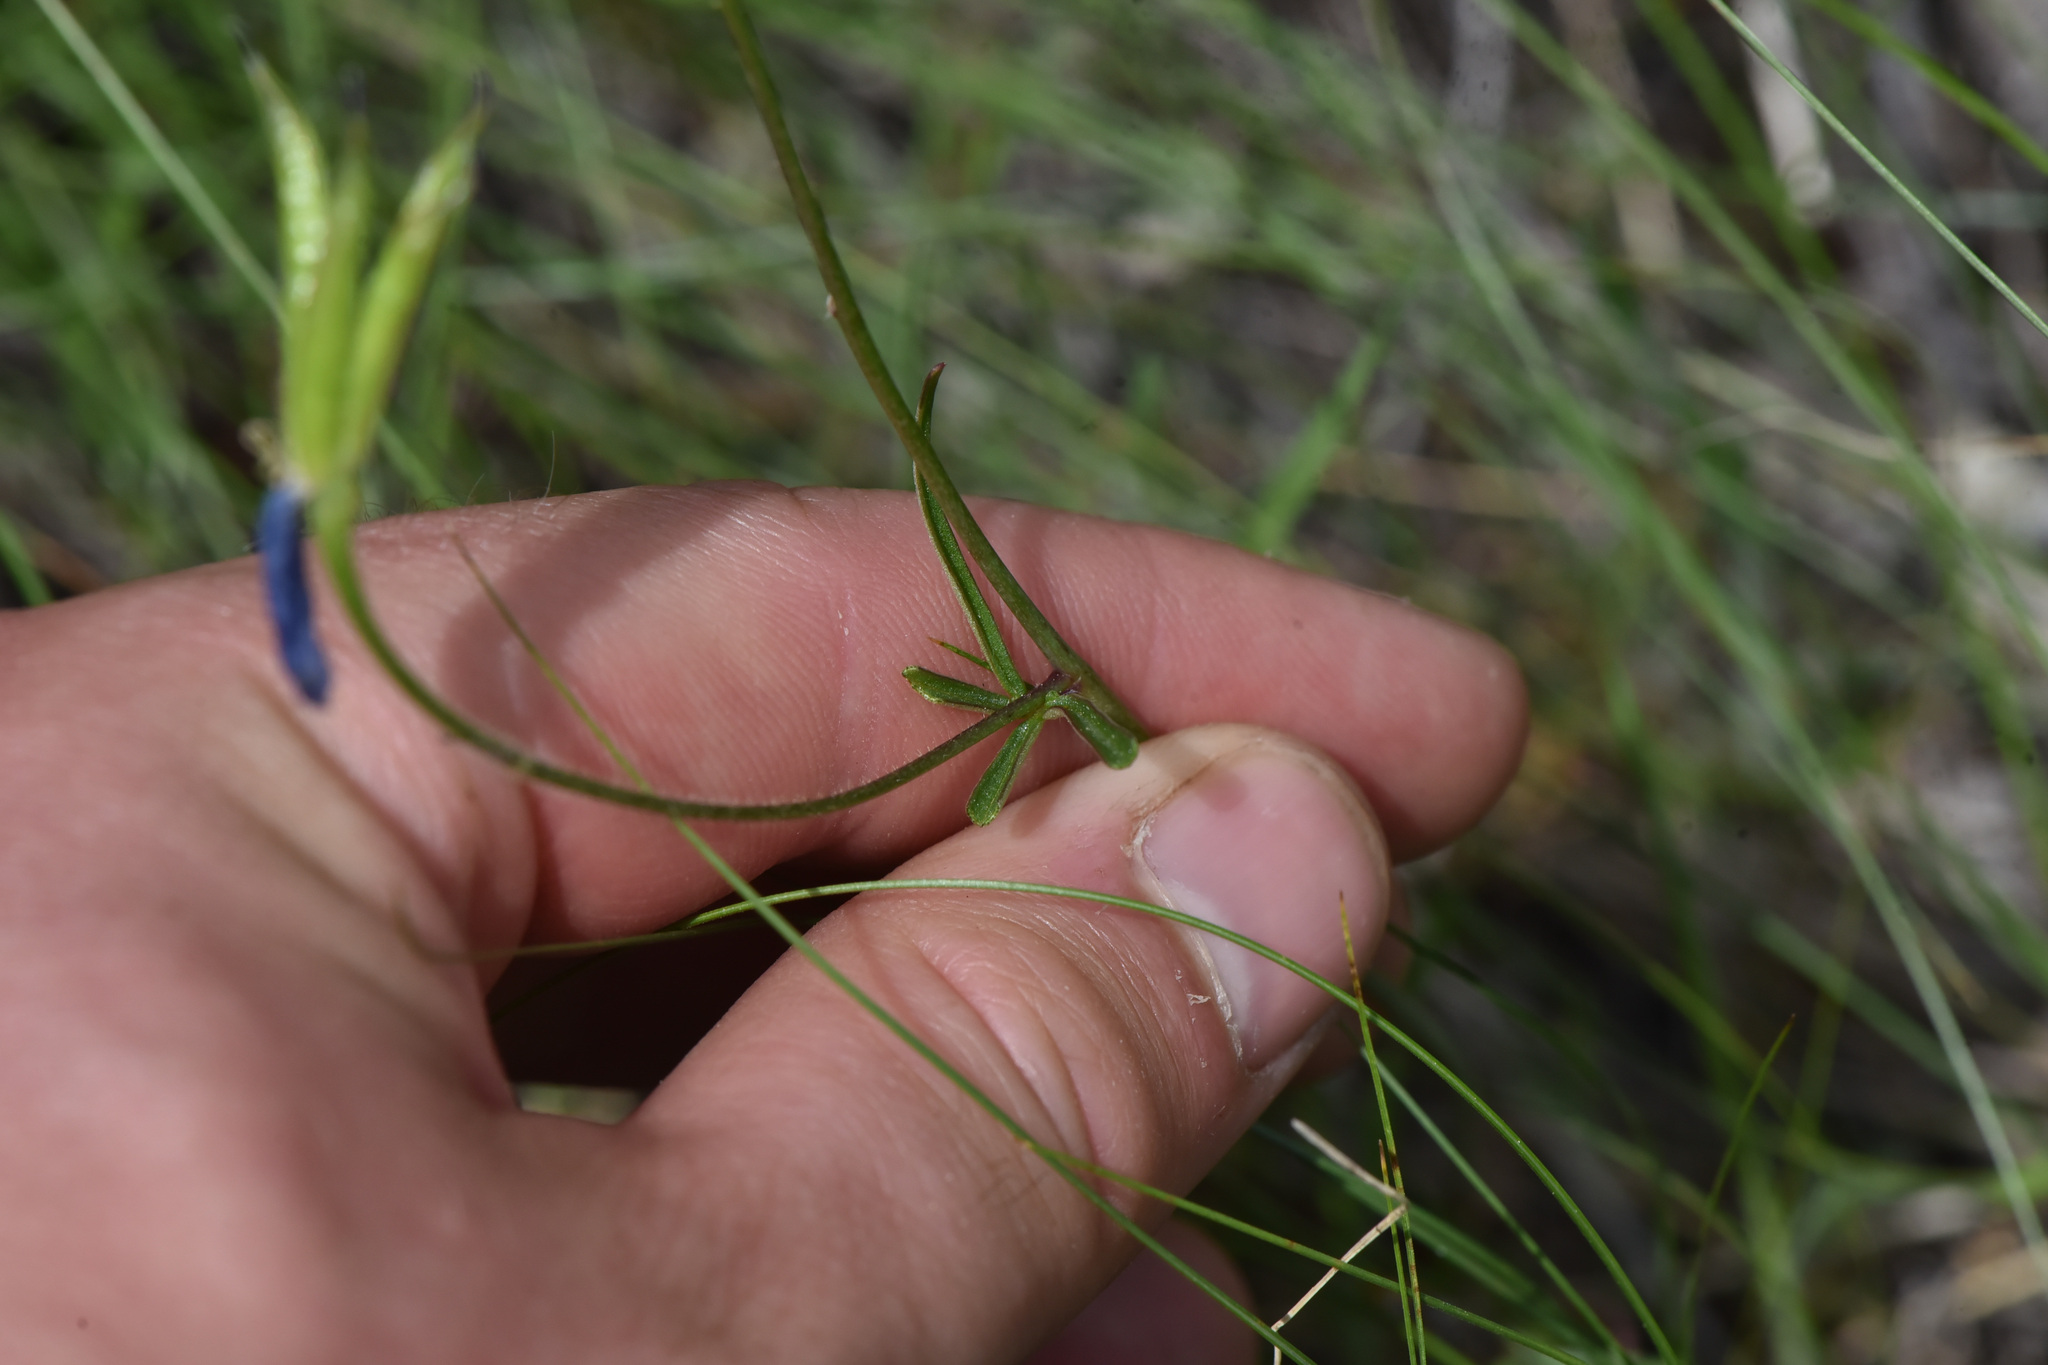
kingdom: Plantae
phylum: Tracheophyta
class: Magnoliopsida
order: Ranunculales
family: Ranunculaceae
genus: Delphinium
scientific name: Delphinium nuttallianum
